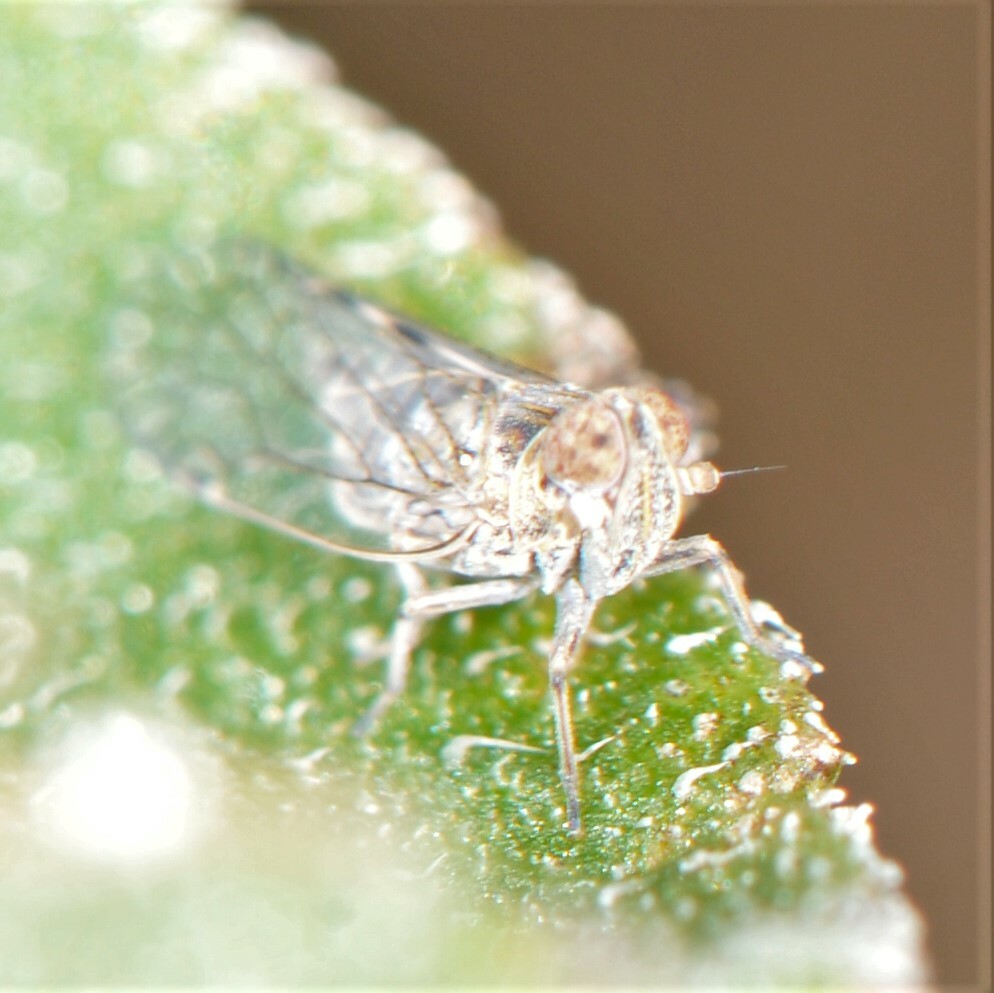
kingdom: Animalia
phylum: Arthropoda
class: Insecta
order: Hemiptera
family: Cixiidae
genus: Oecleus
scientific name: Oecleus
